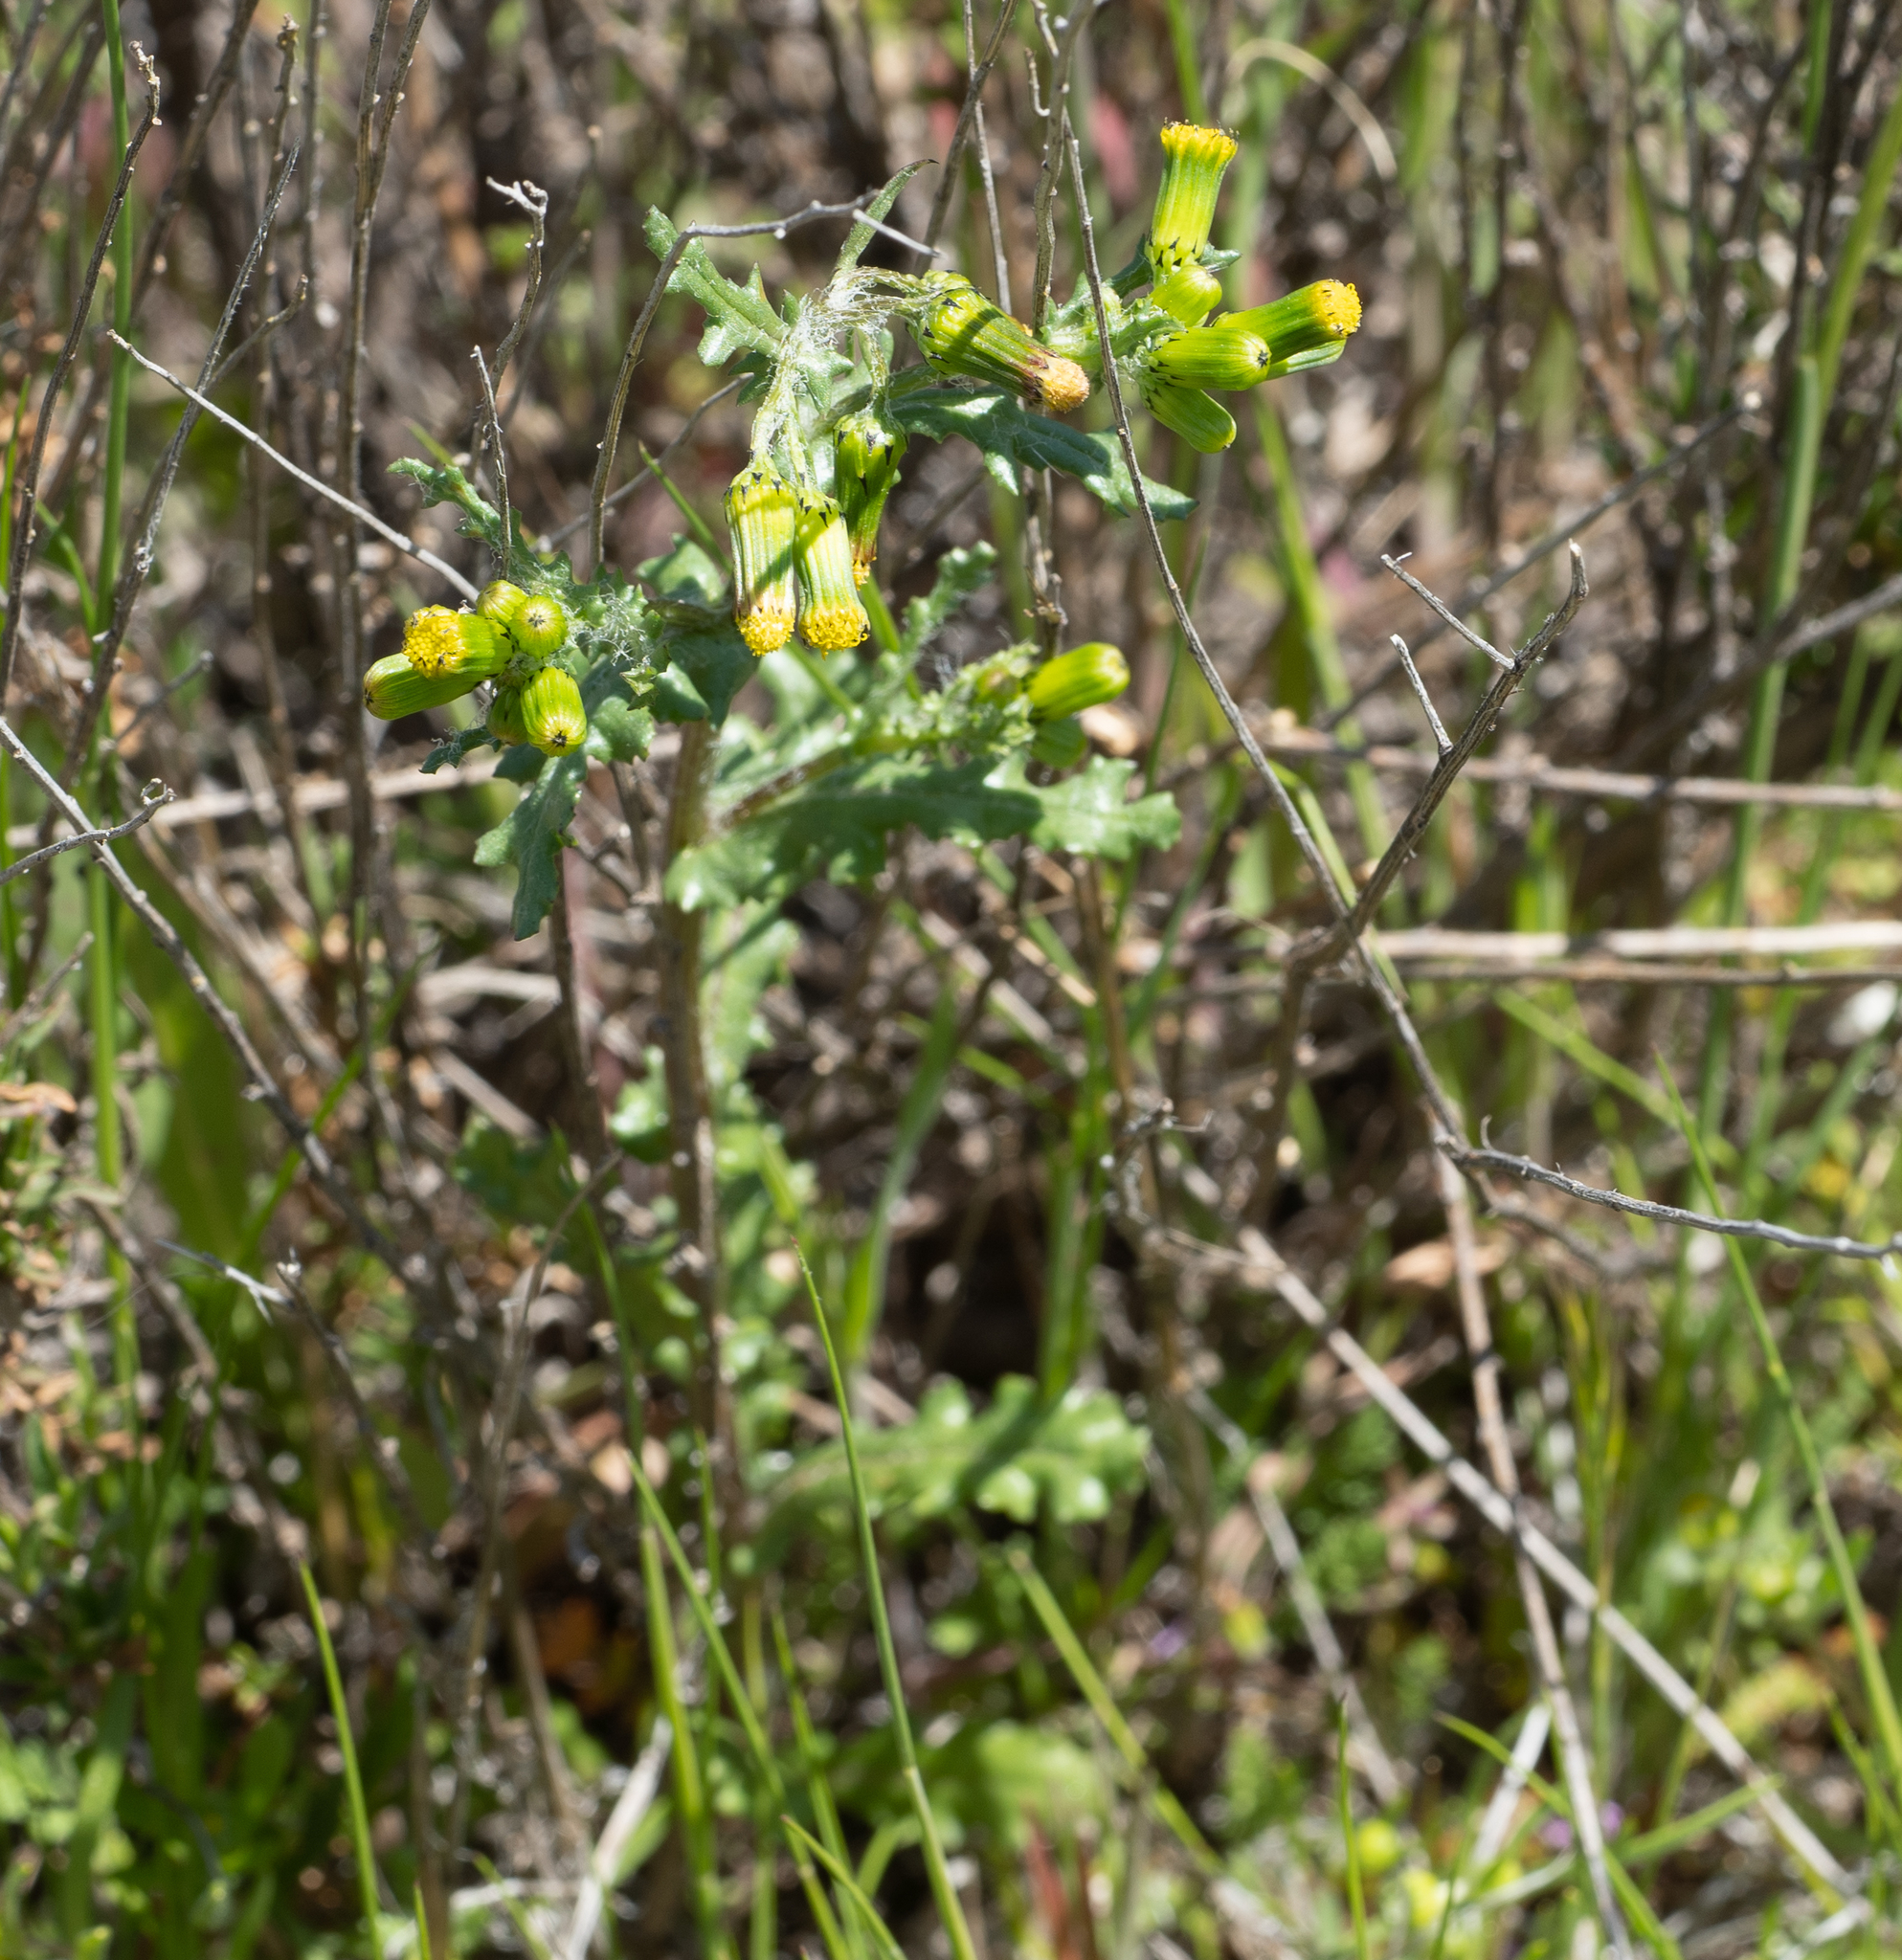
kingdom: Plantae
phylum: Tracheophyta
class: Magnoliopsida
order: Asterales
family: Asteraceae
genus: Senecio
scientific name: Senecio vulgaris
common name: Old-man-in-the-spring
